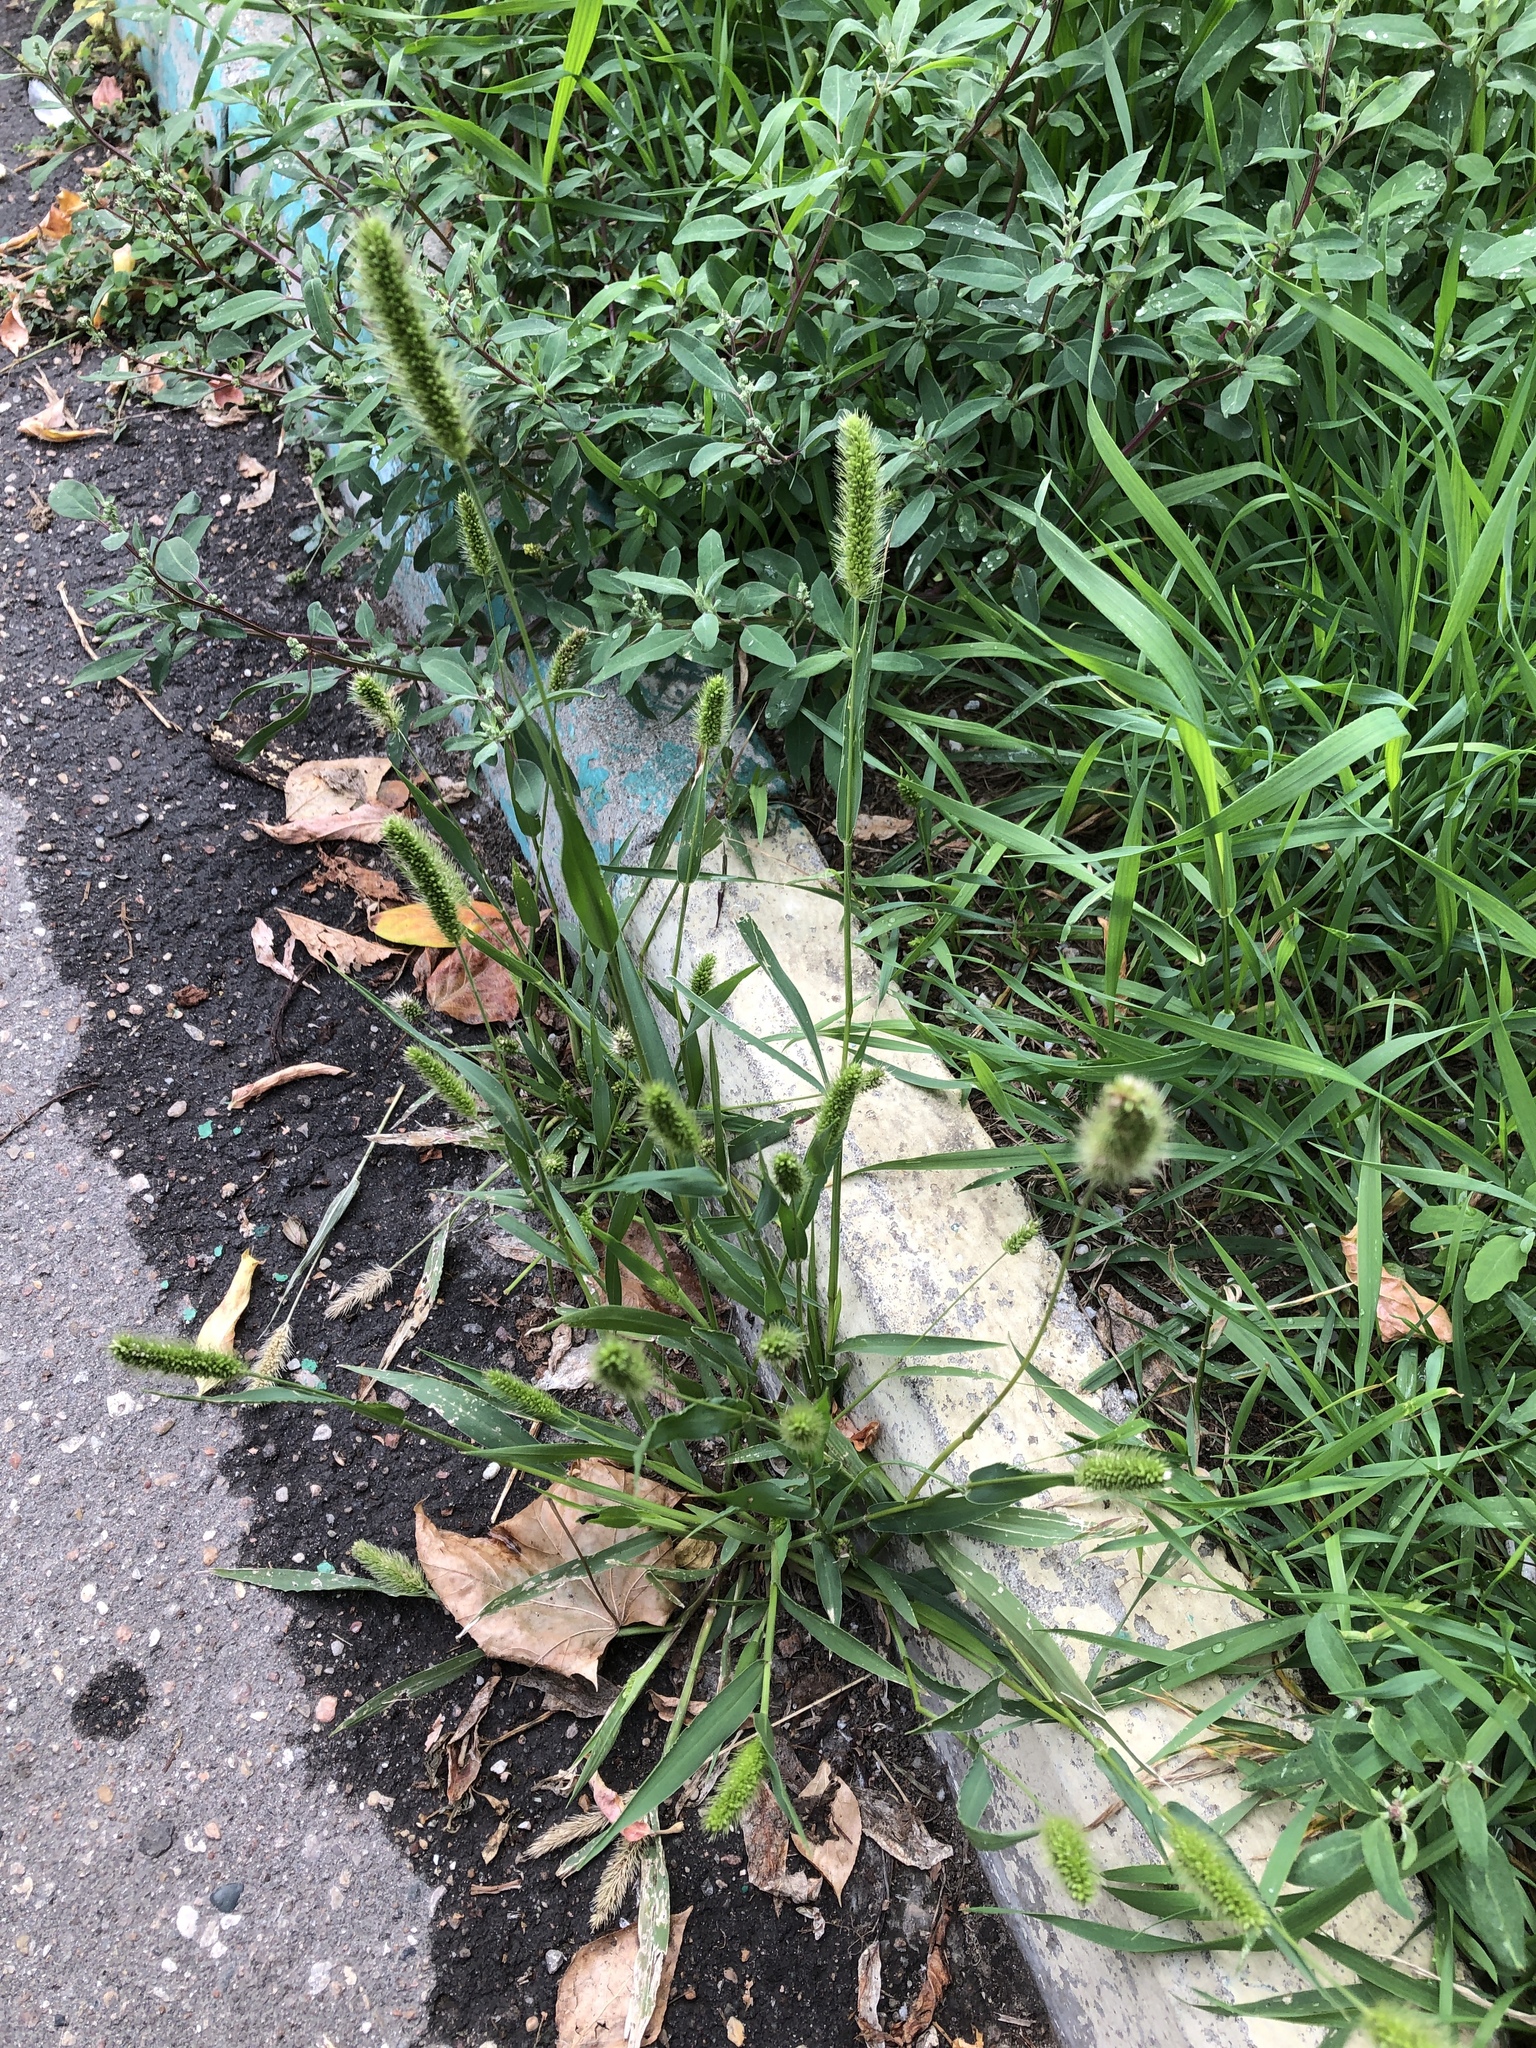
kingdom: Plantae
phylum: Tracheophyta
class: Liliopsida
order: Poales
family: Poaceae
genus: Setaria
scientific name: Setaria viridis
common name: Green bristlegrass
